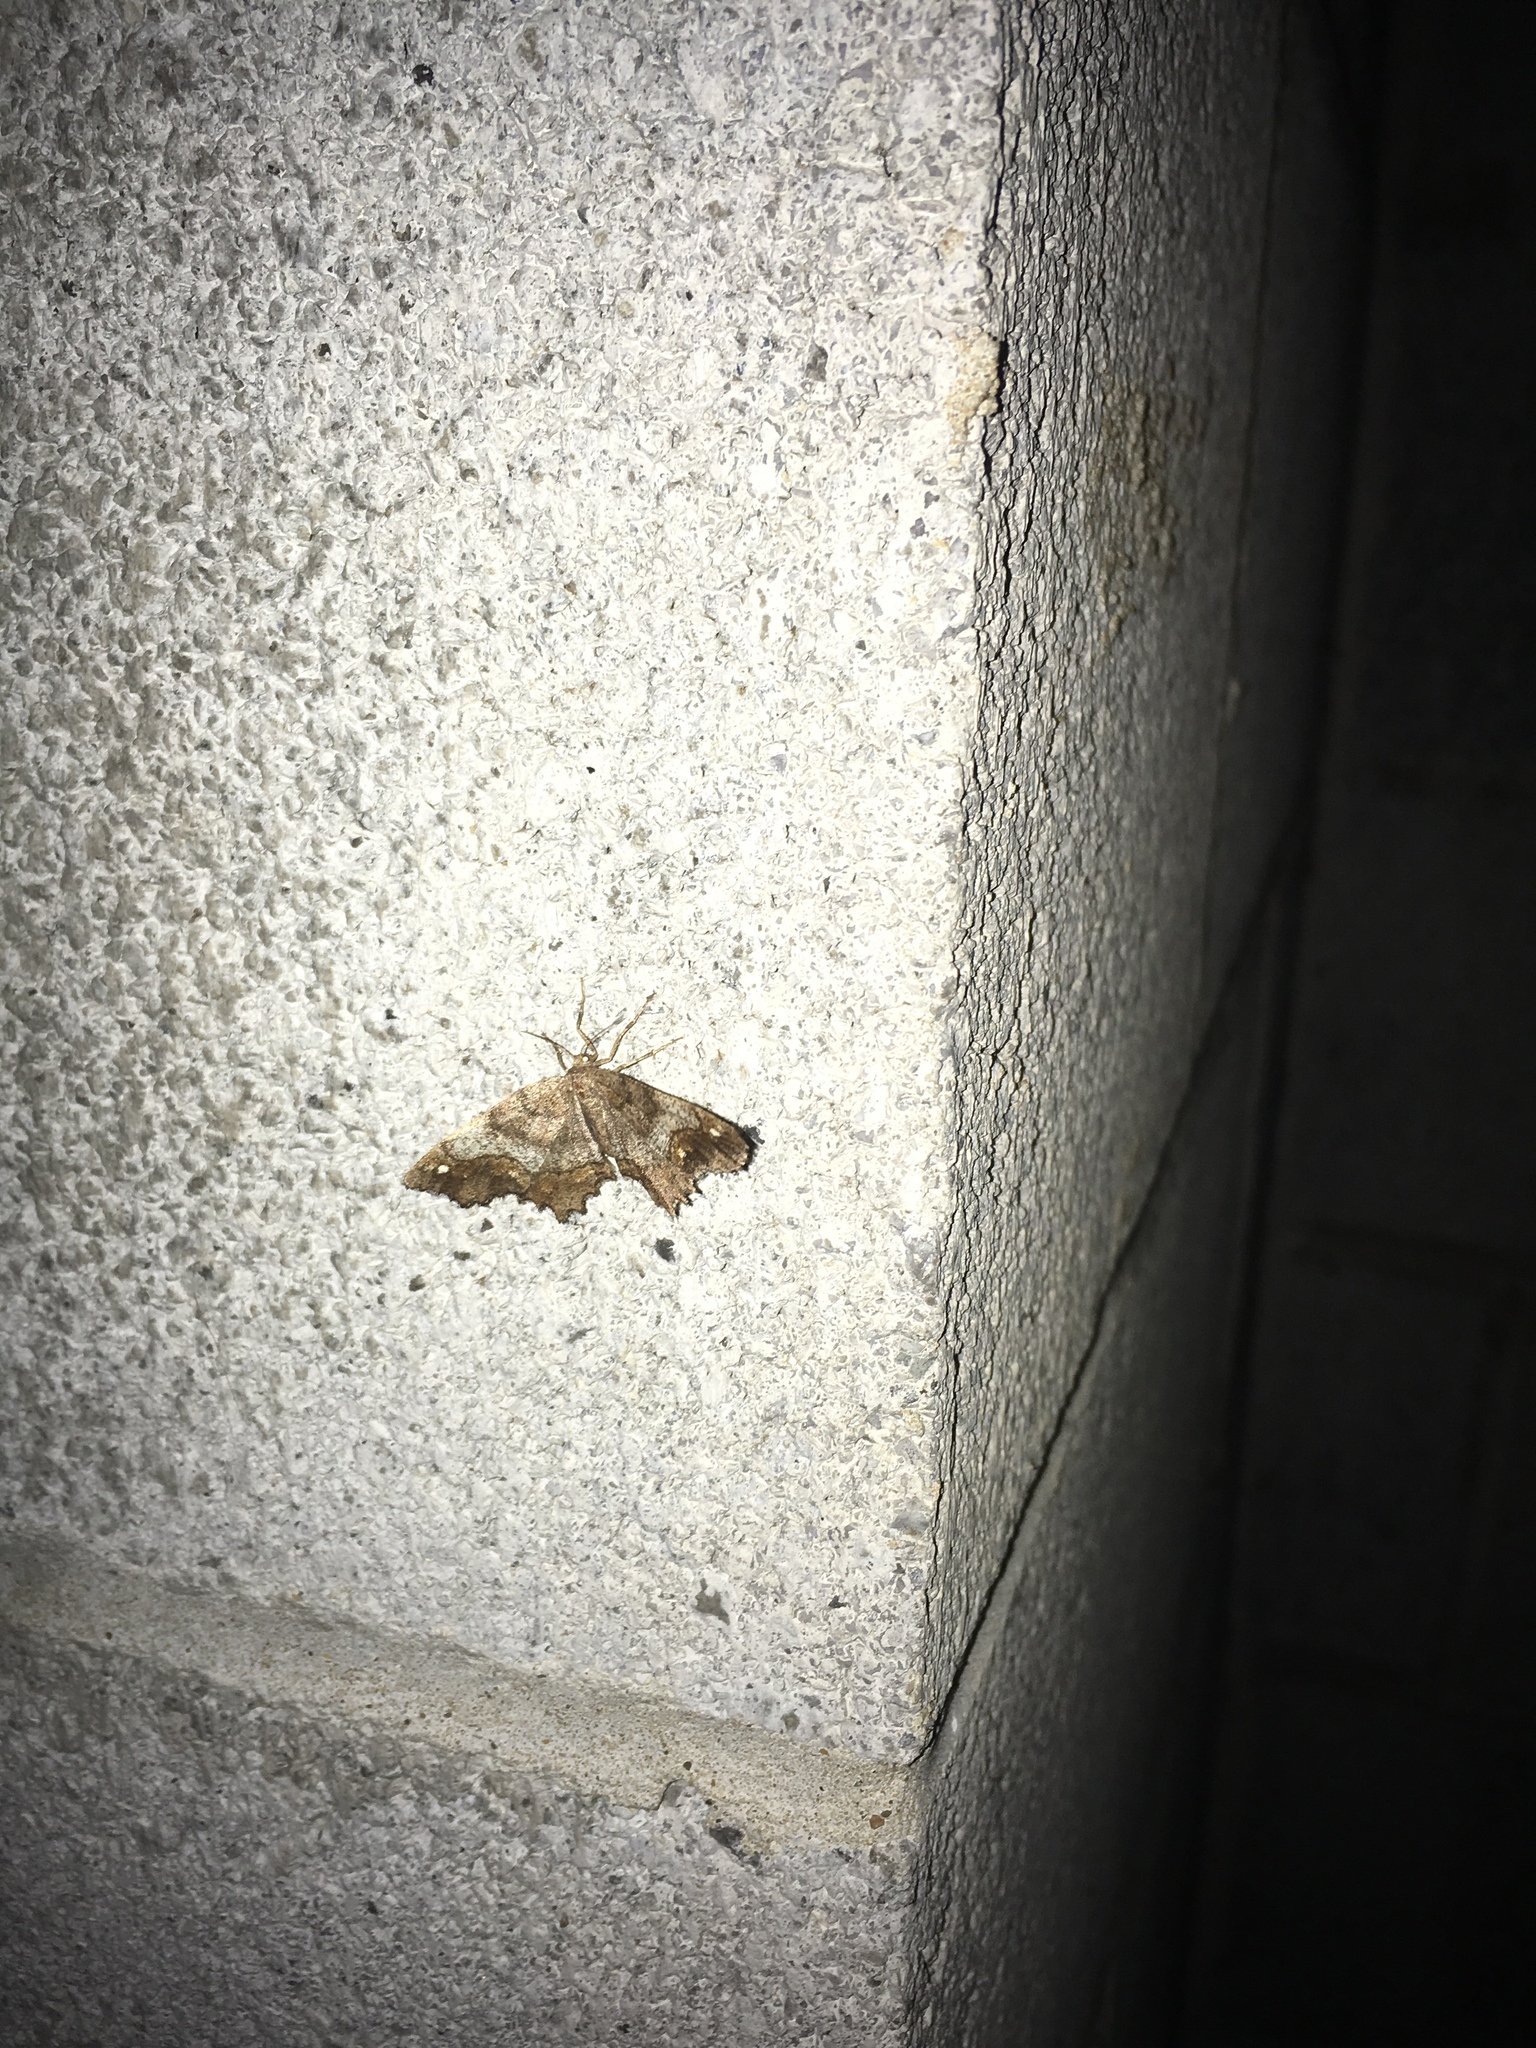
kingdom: Animalia
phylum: Arthropoda
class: Insecta
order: Lepidoptera
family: Geometridae
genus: Hypagyrtis
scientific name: Hypagyrtis unipunctata
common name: One-spotted variant
